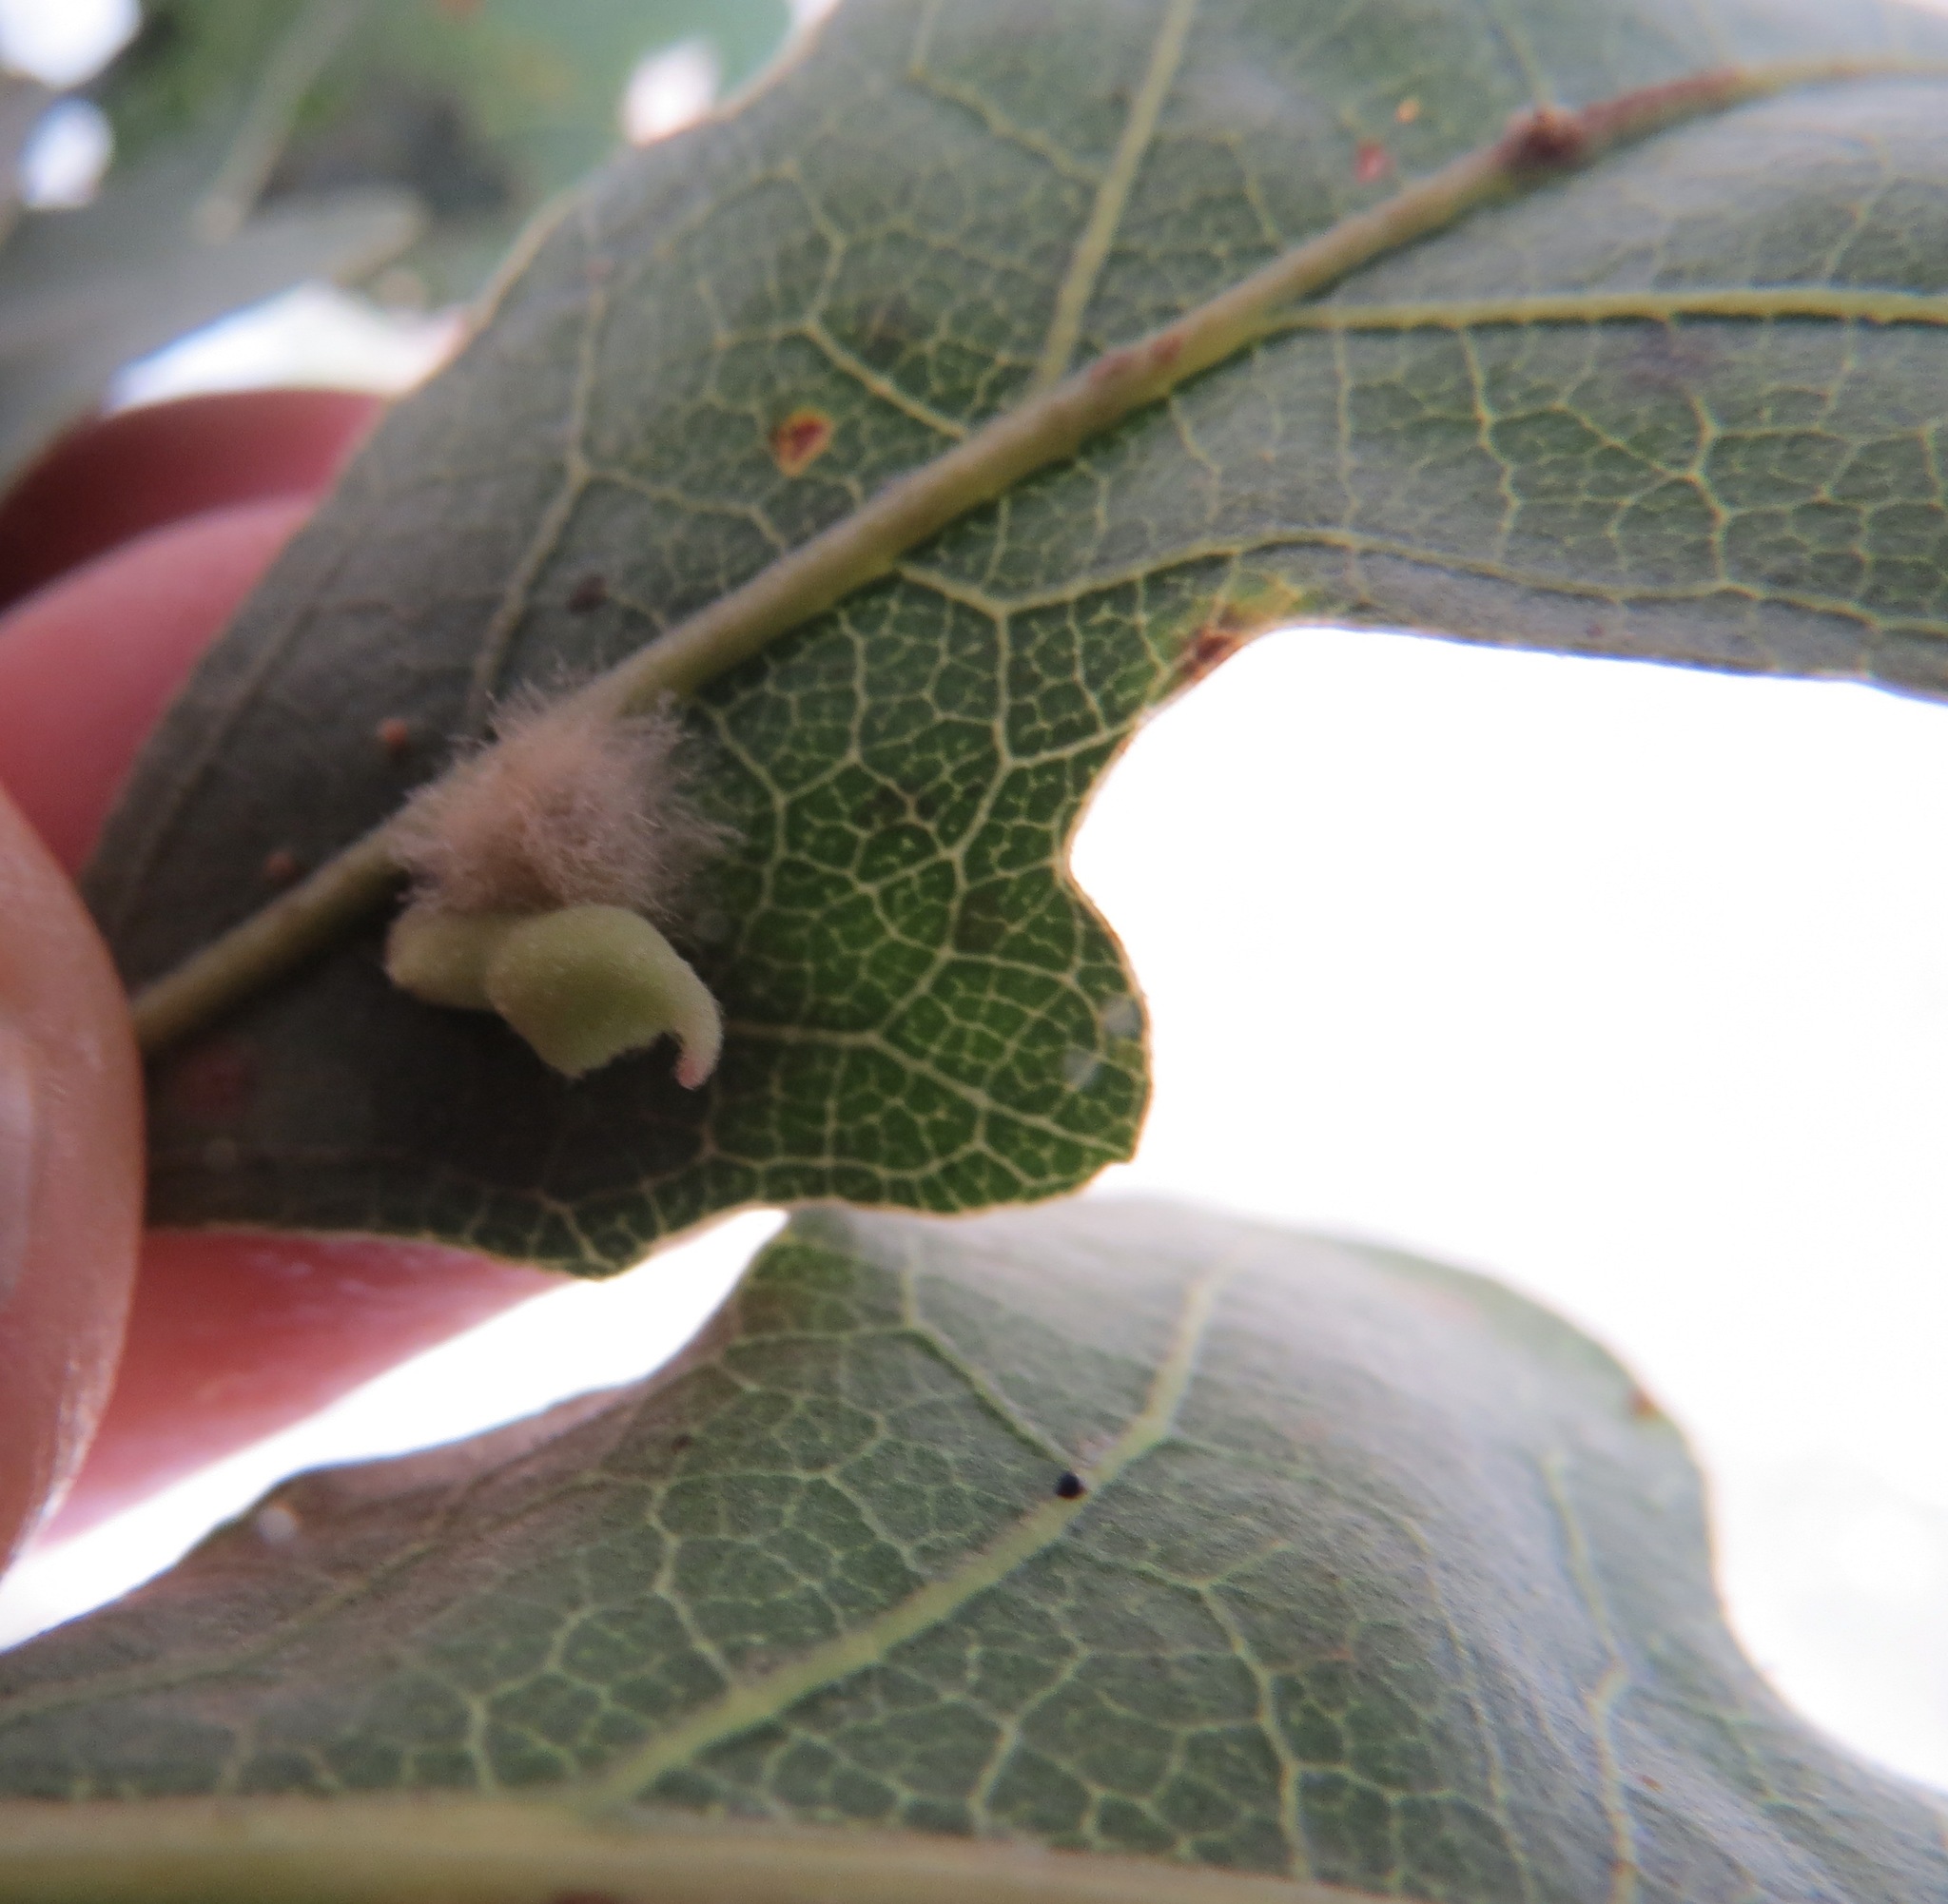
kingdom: Animalia
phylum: Arthropoda
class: Insecta
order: Hymenoptera
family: Cynipidae
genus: Atrusca
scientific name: Atrusca
